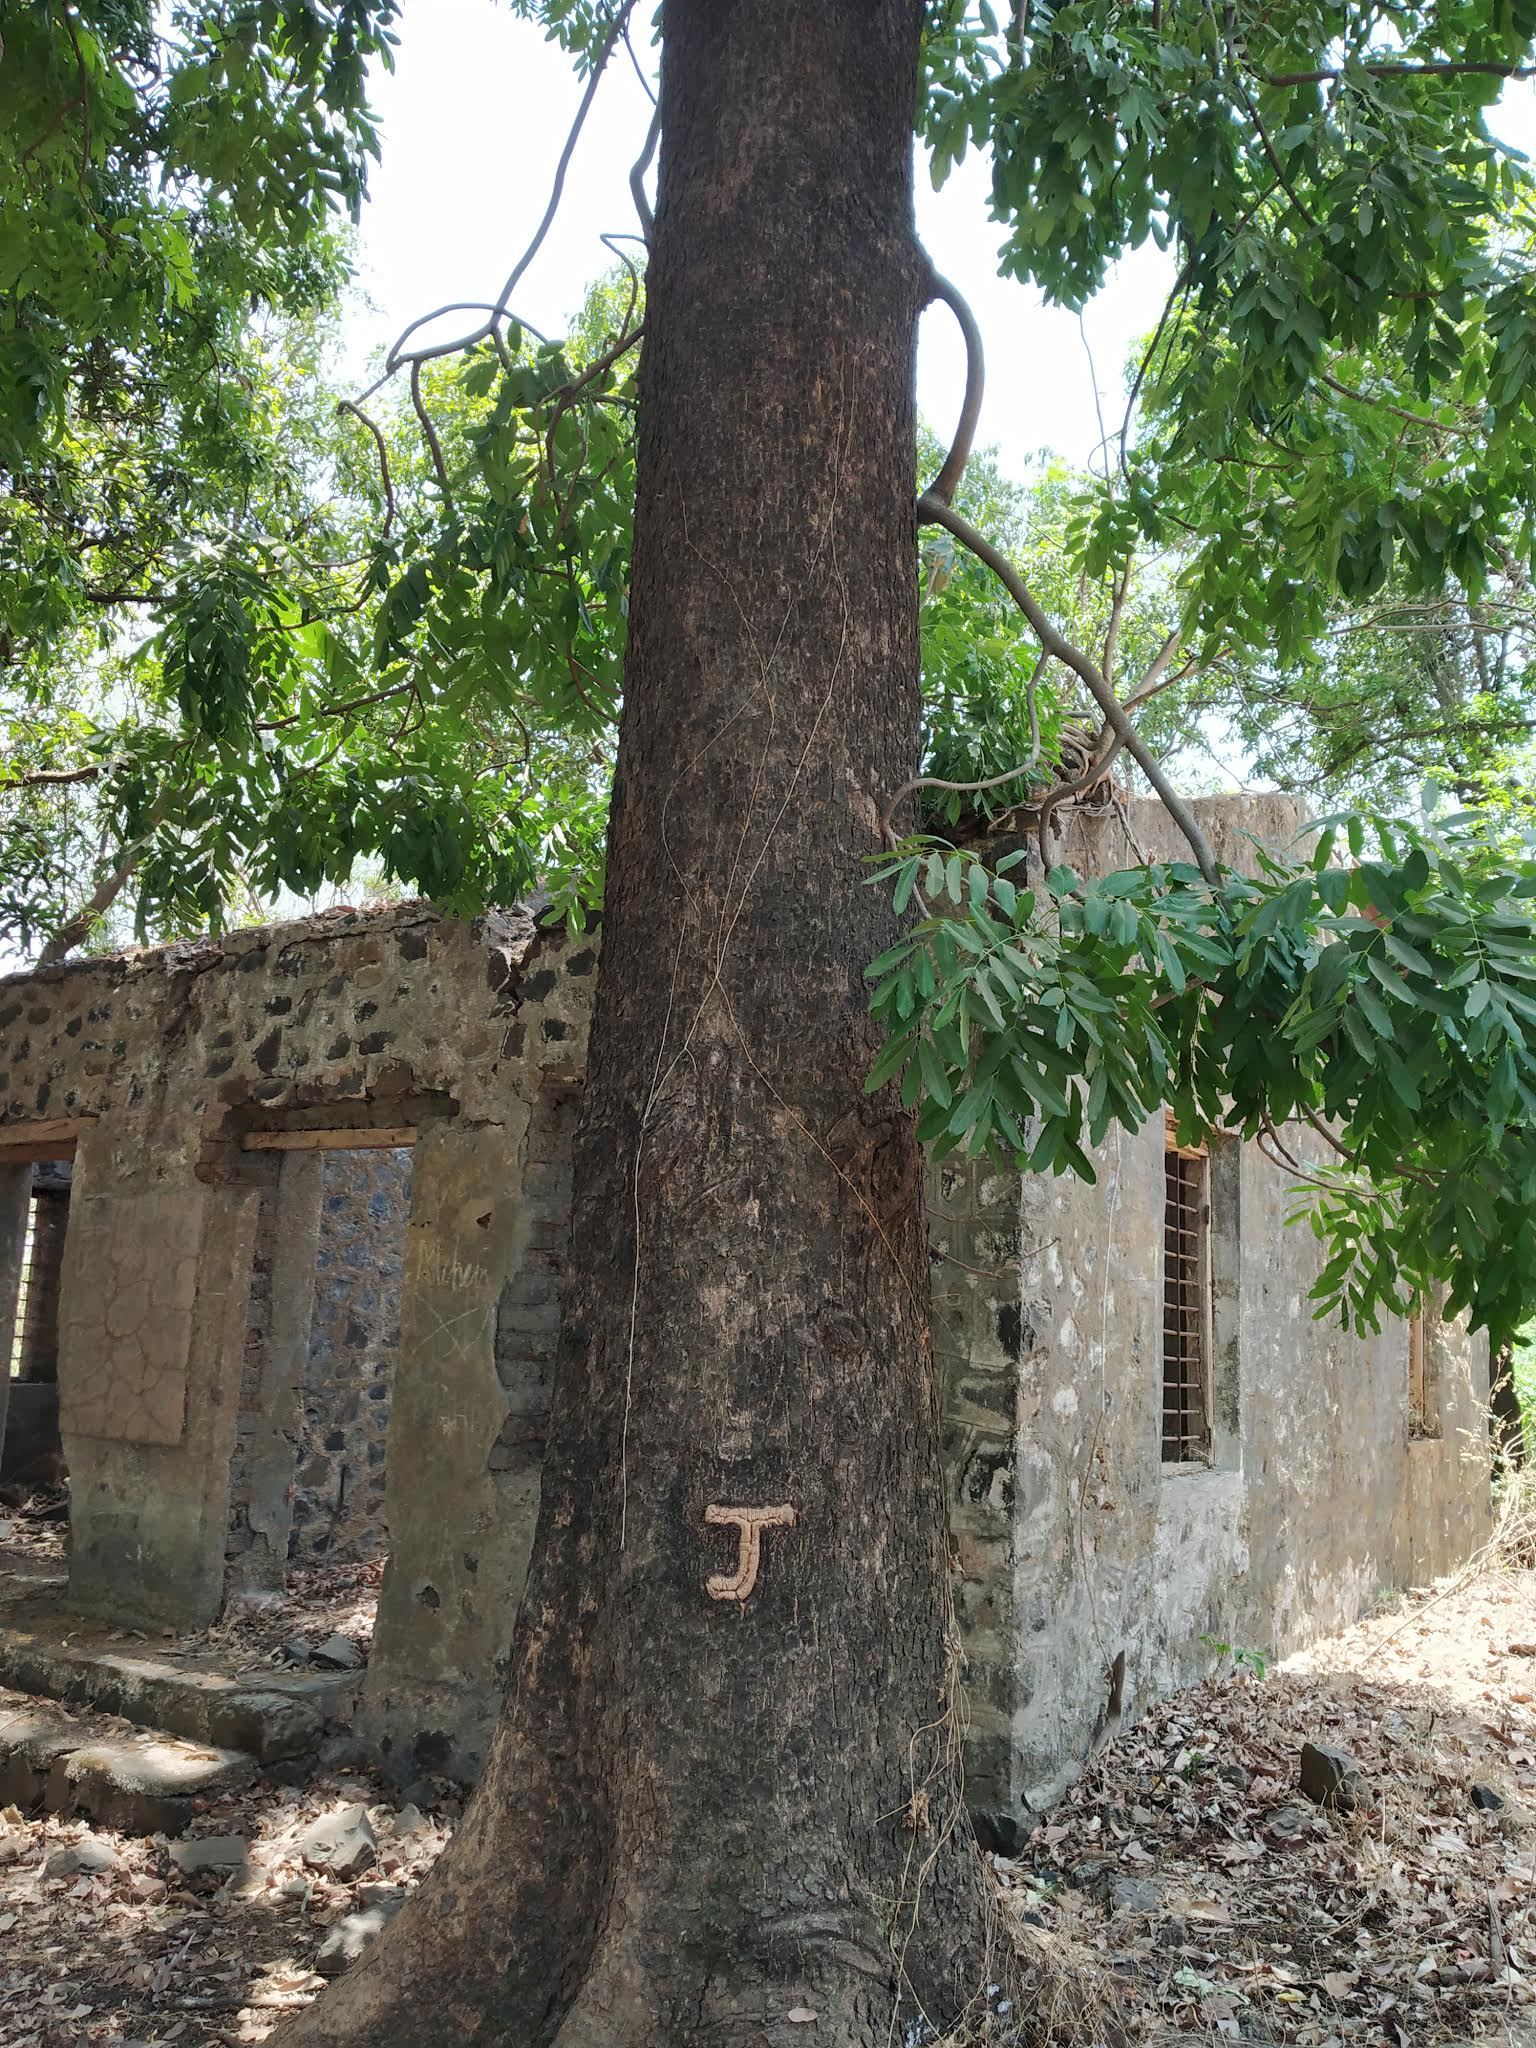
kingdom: Plantae
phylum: Tracheophyta
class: Magnoliopsida
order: Sapindales
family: Meliaceae
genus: Swietenia
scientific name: Swietenia macrophylla
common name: Honduras mahogany
